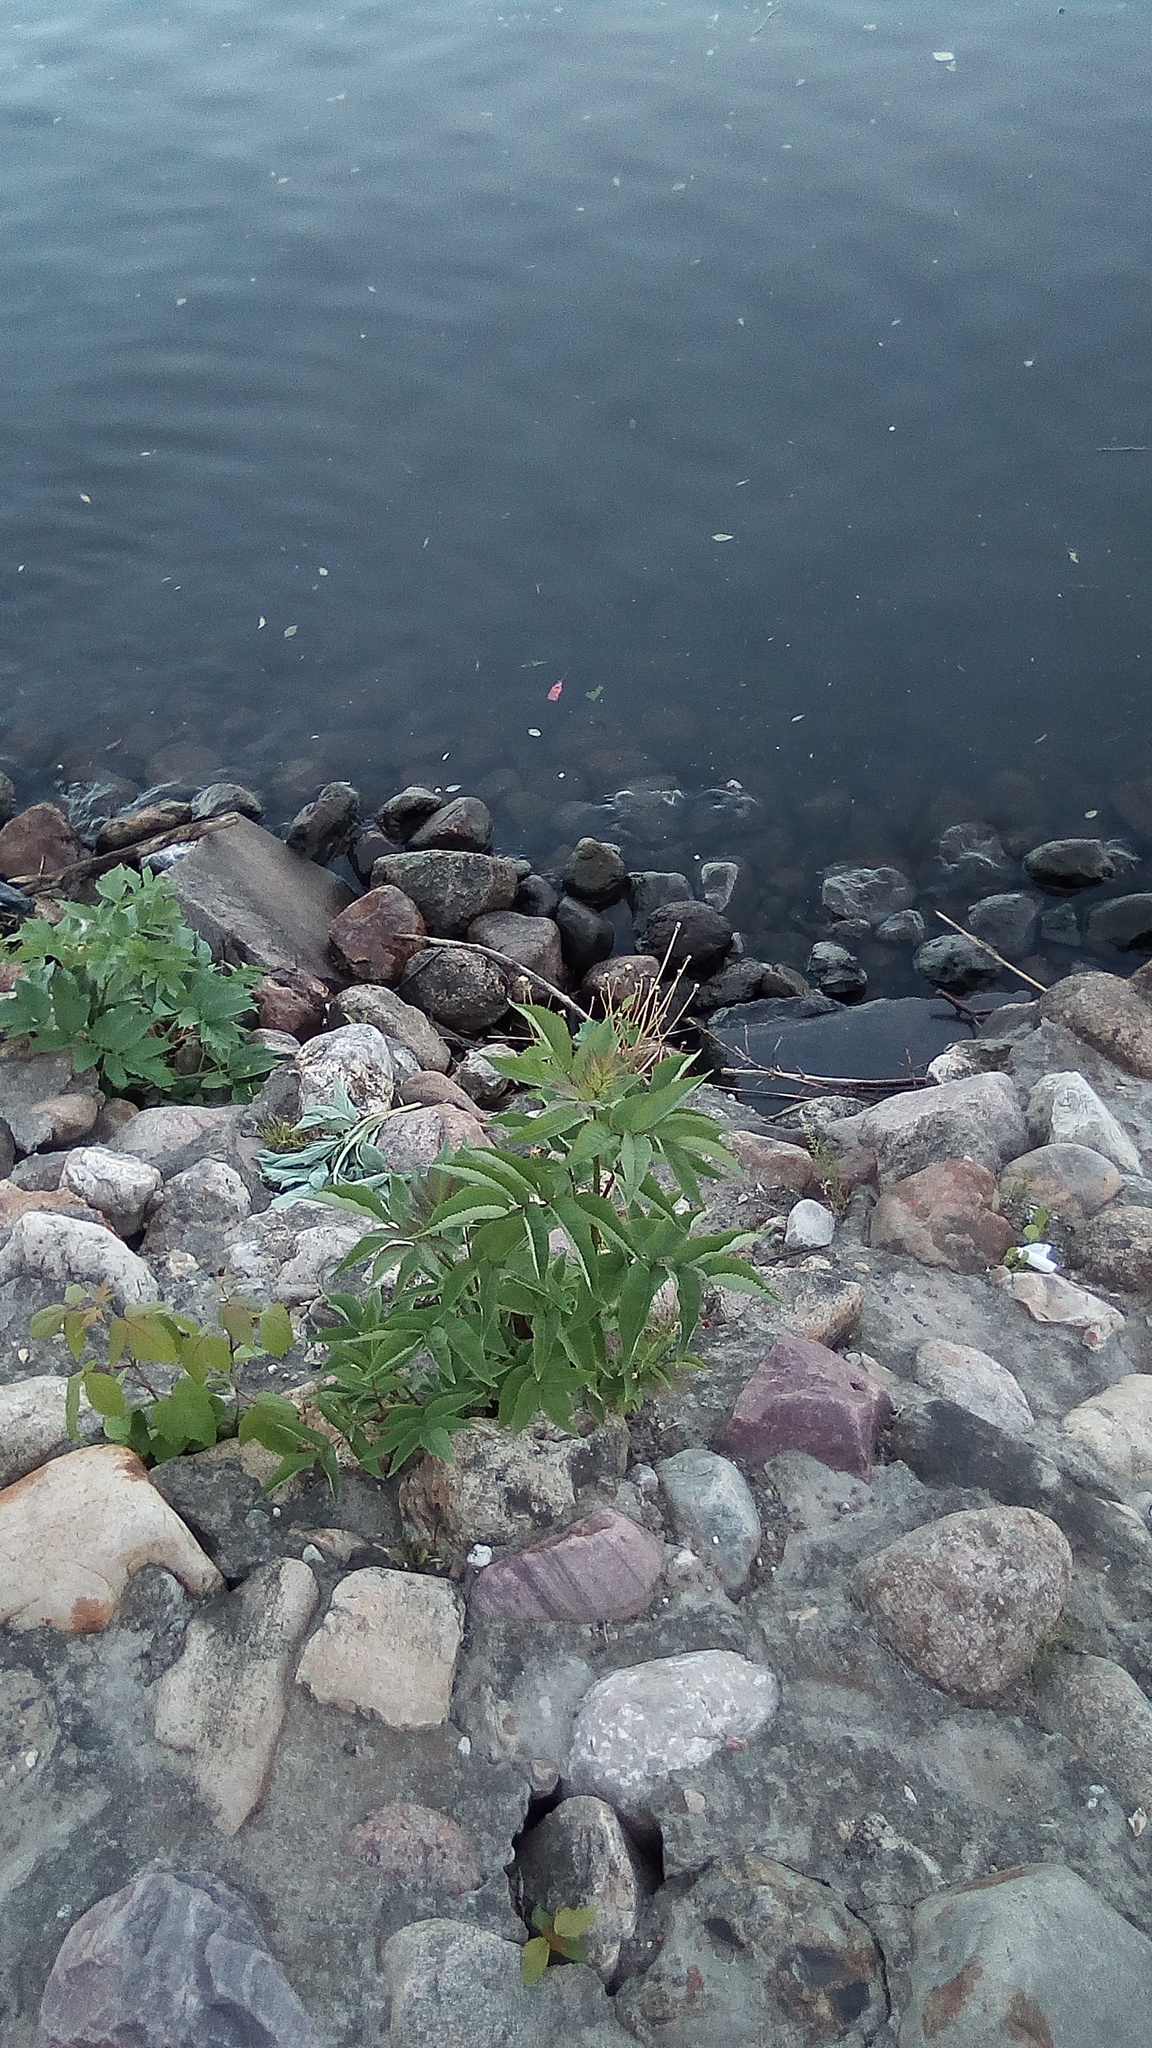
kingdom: Plantae
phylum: Tracheophyta
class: Magnoliopsida
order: Dipsacales
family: Viburnaceae
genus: Sambucus
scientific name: Sambucus racemosa
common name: Red-berried elder
